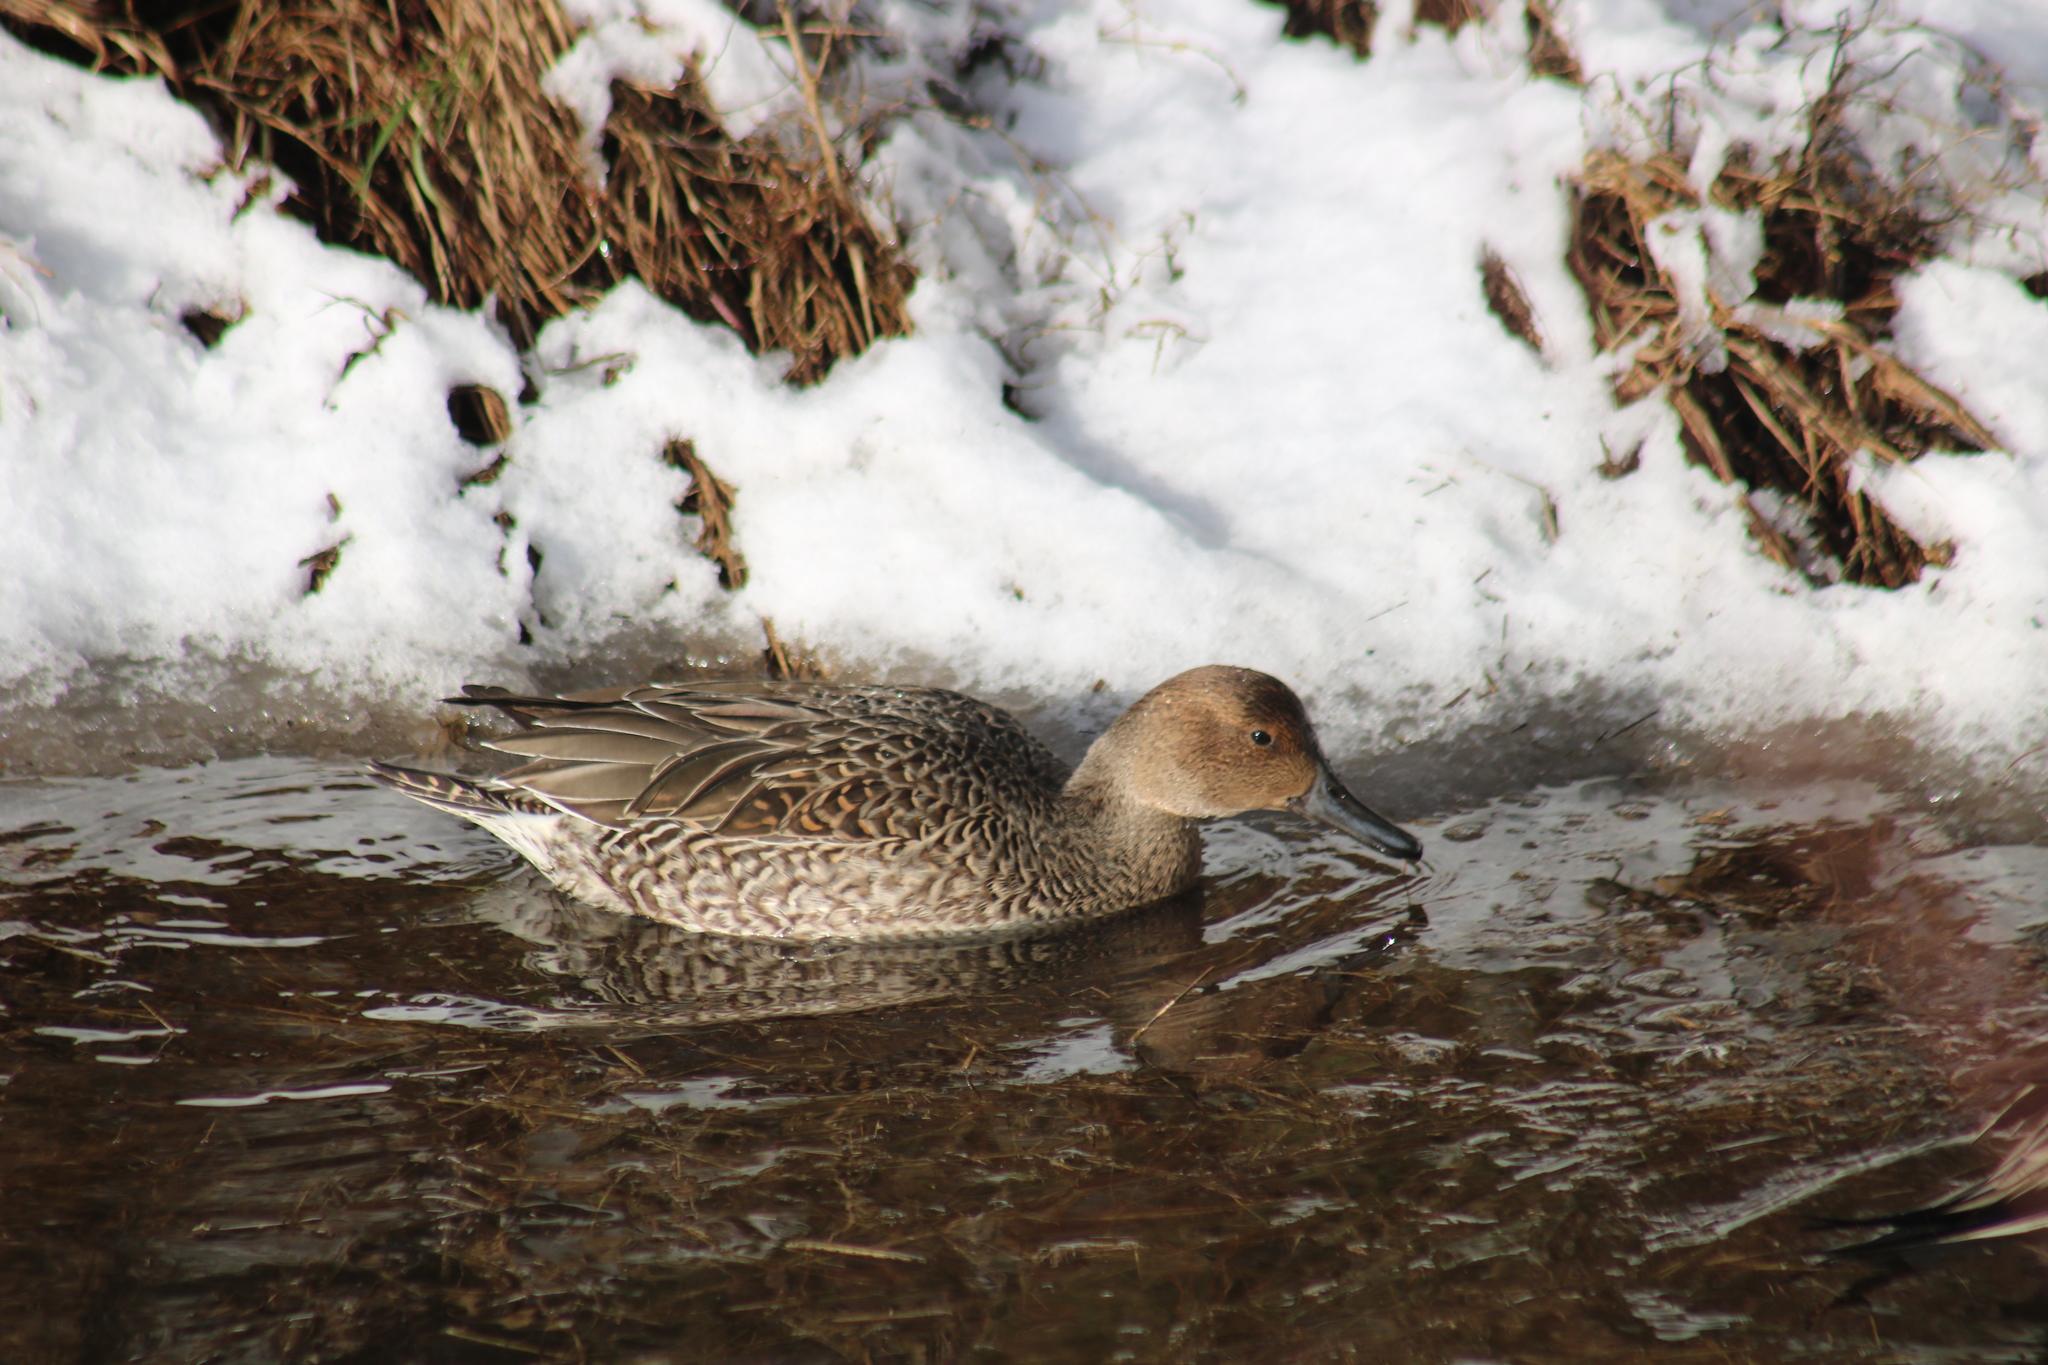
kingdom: Animalia
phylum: Chordata
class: Aves
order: Anseriformes
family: Anatidae
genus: Anas
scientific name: Anas acuta
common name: Northern pintail
